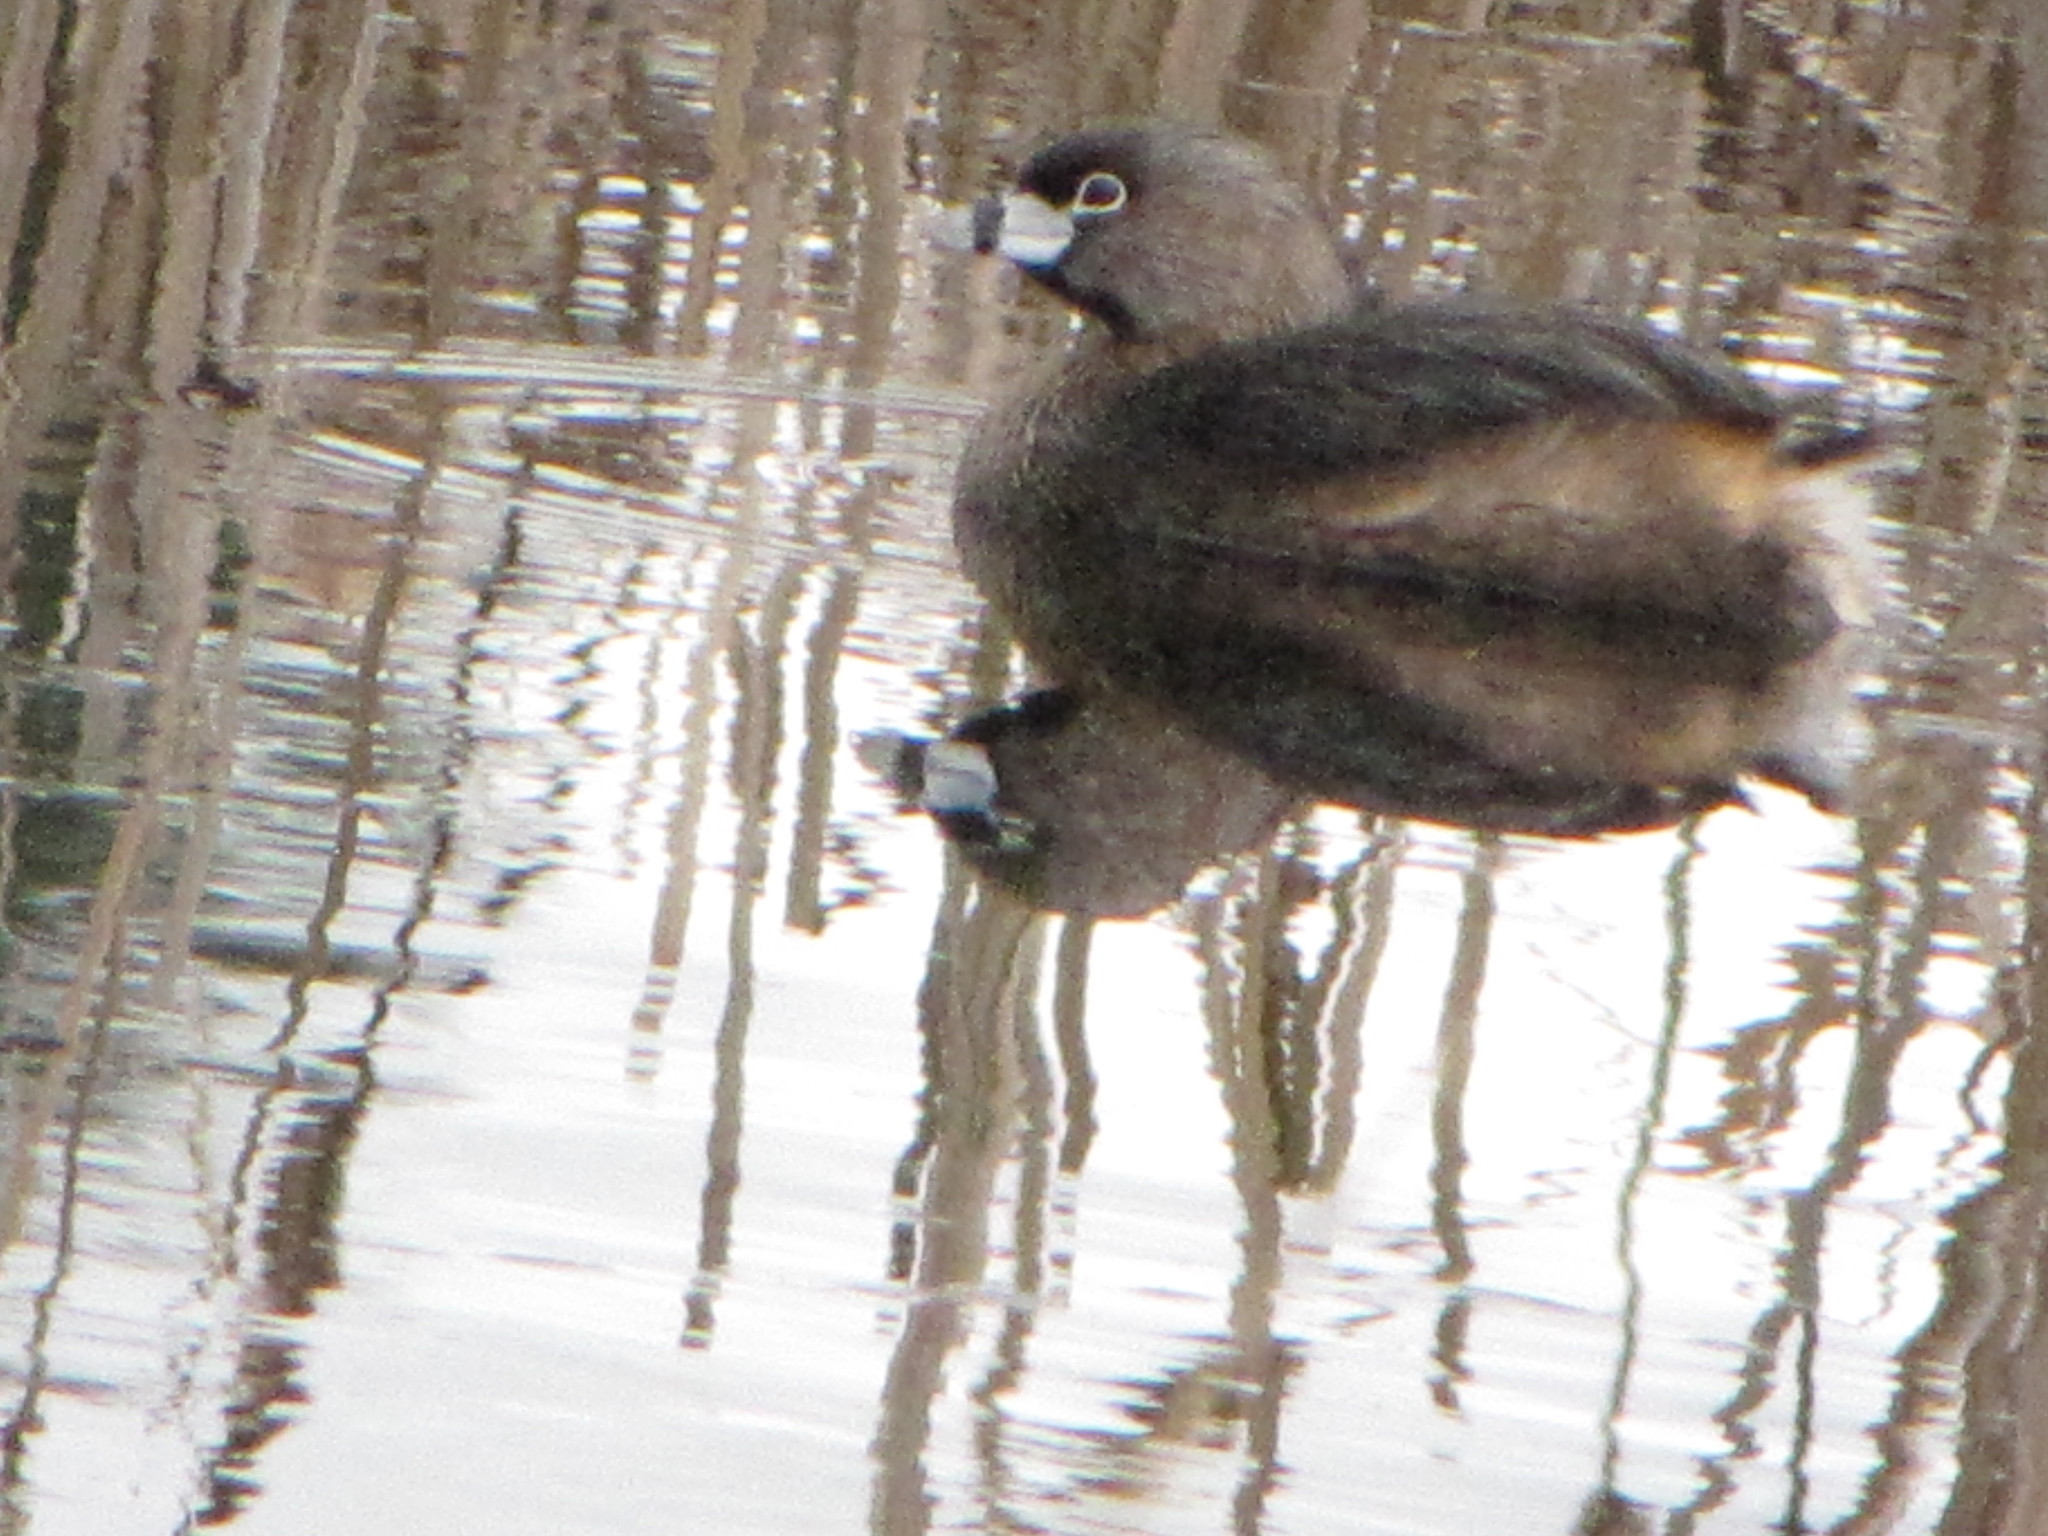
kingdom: Animalia
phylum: Chordata
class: Aves
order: Podicipediformes
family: Podicipedidae
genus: Podilymbus
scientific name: Podilymbus podiceps
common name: Pied-billed grebe
